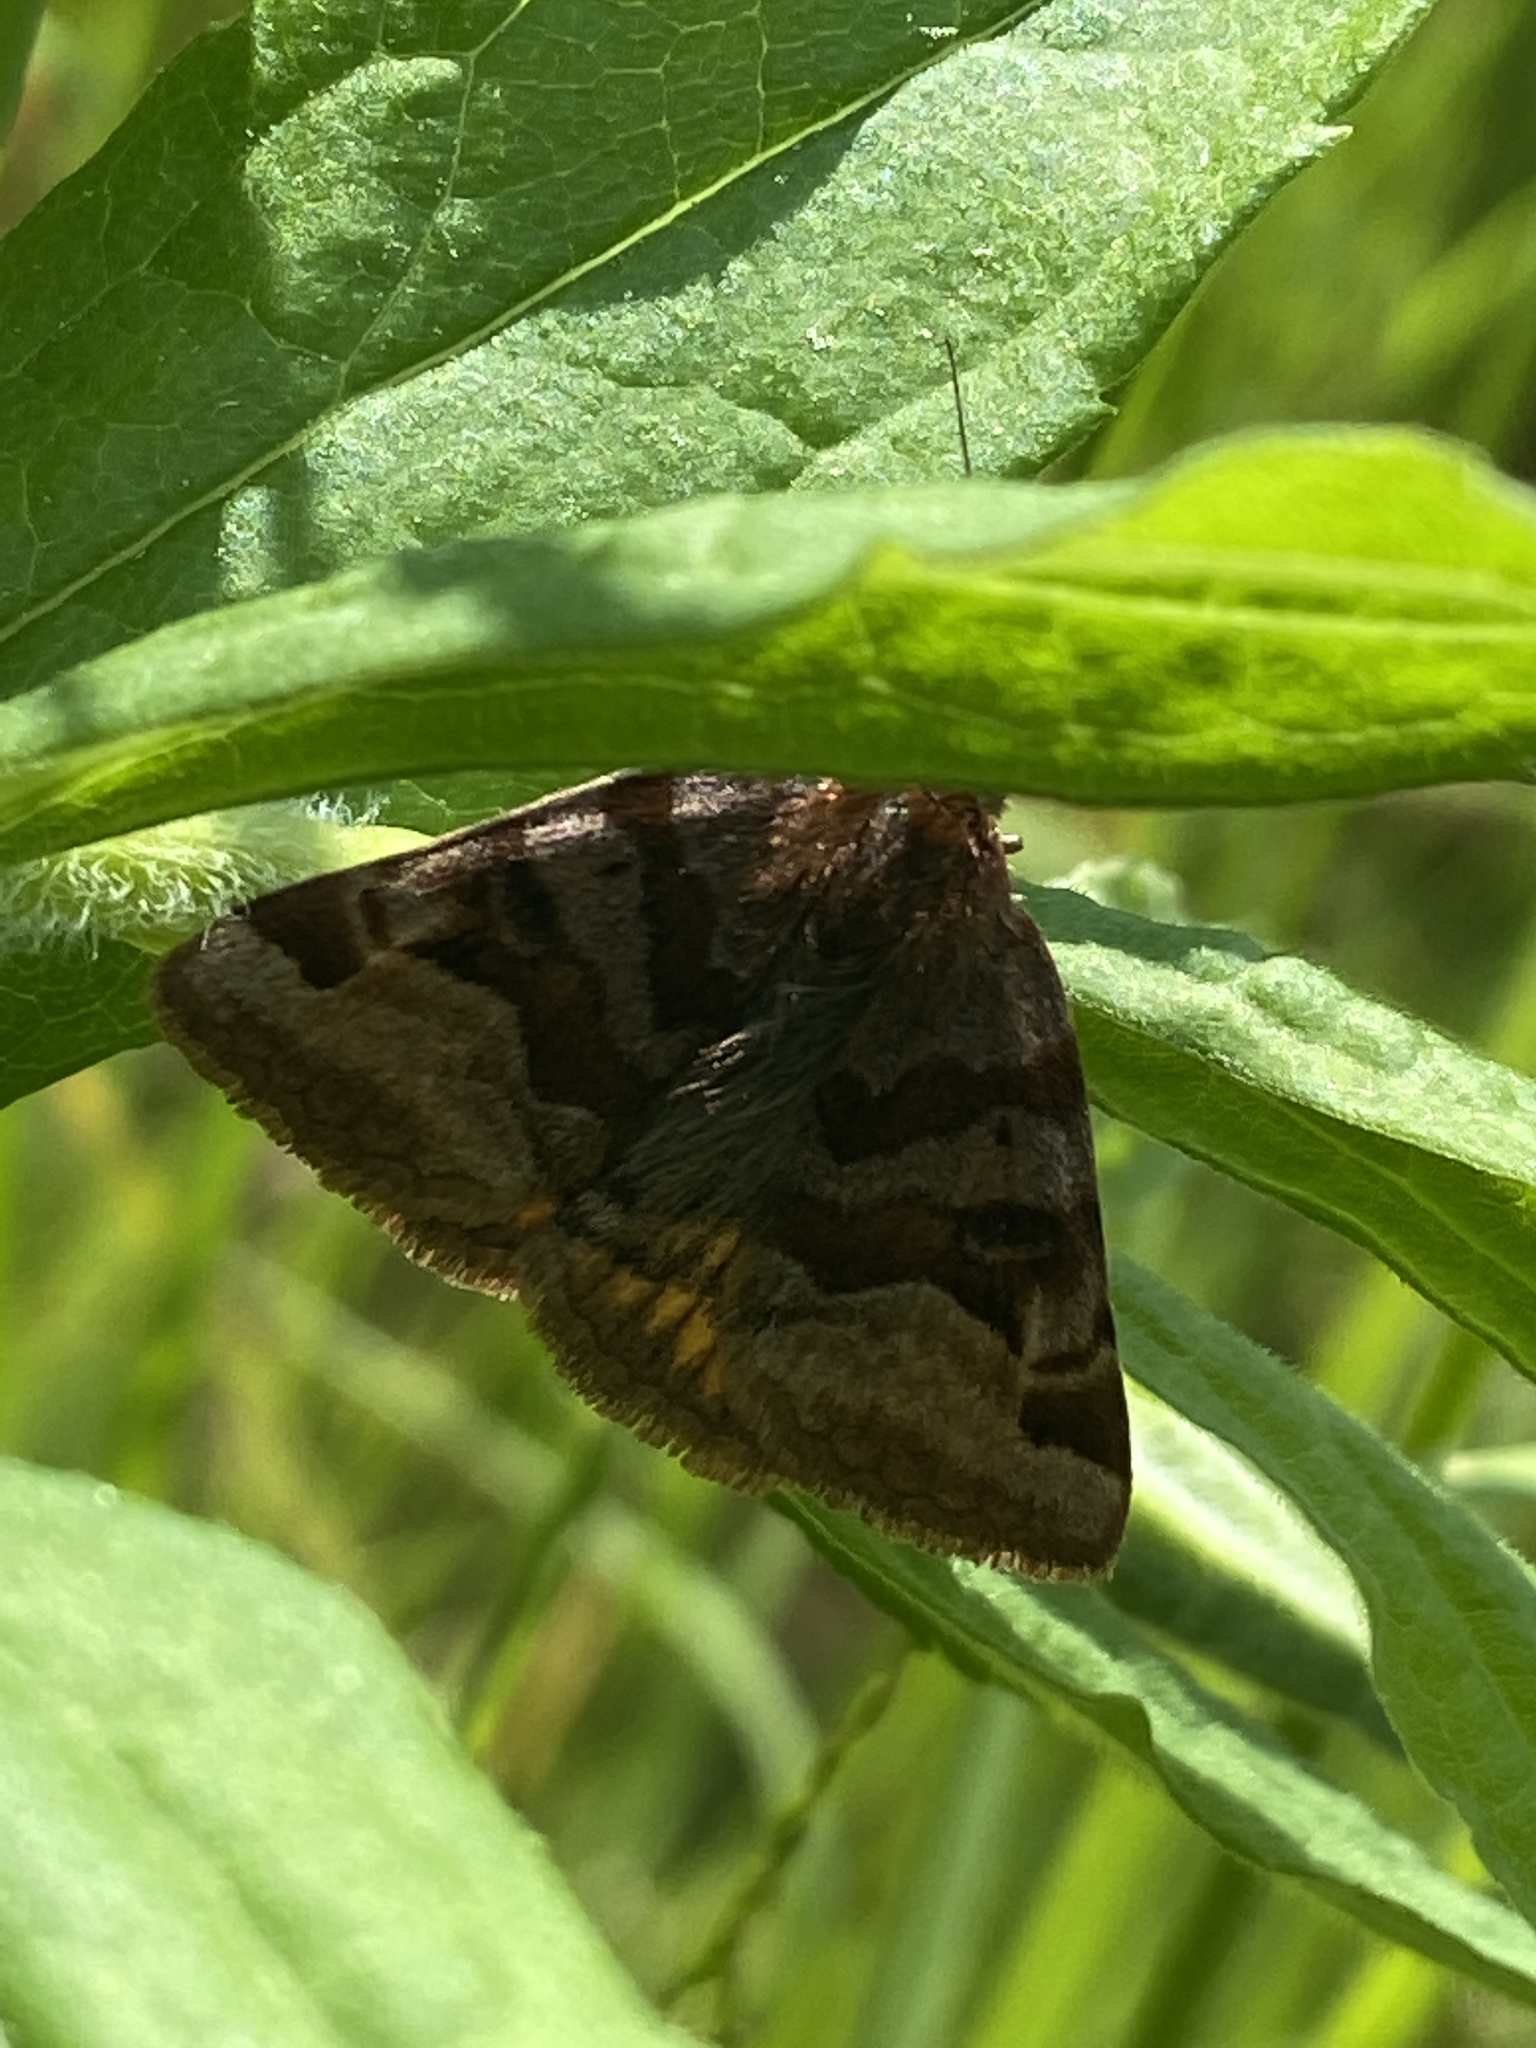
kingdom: Animalia
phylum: Arthropoda
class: Insecta
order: Lepidoptera
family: Erebidae
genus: Euclidia
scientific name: Euclidia glyphica
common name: Burnet companion
